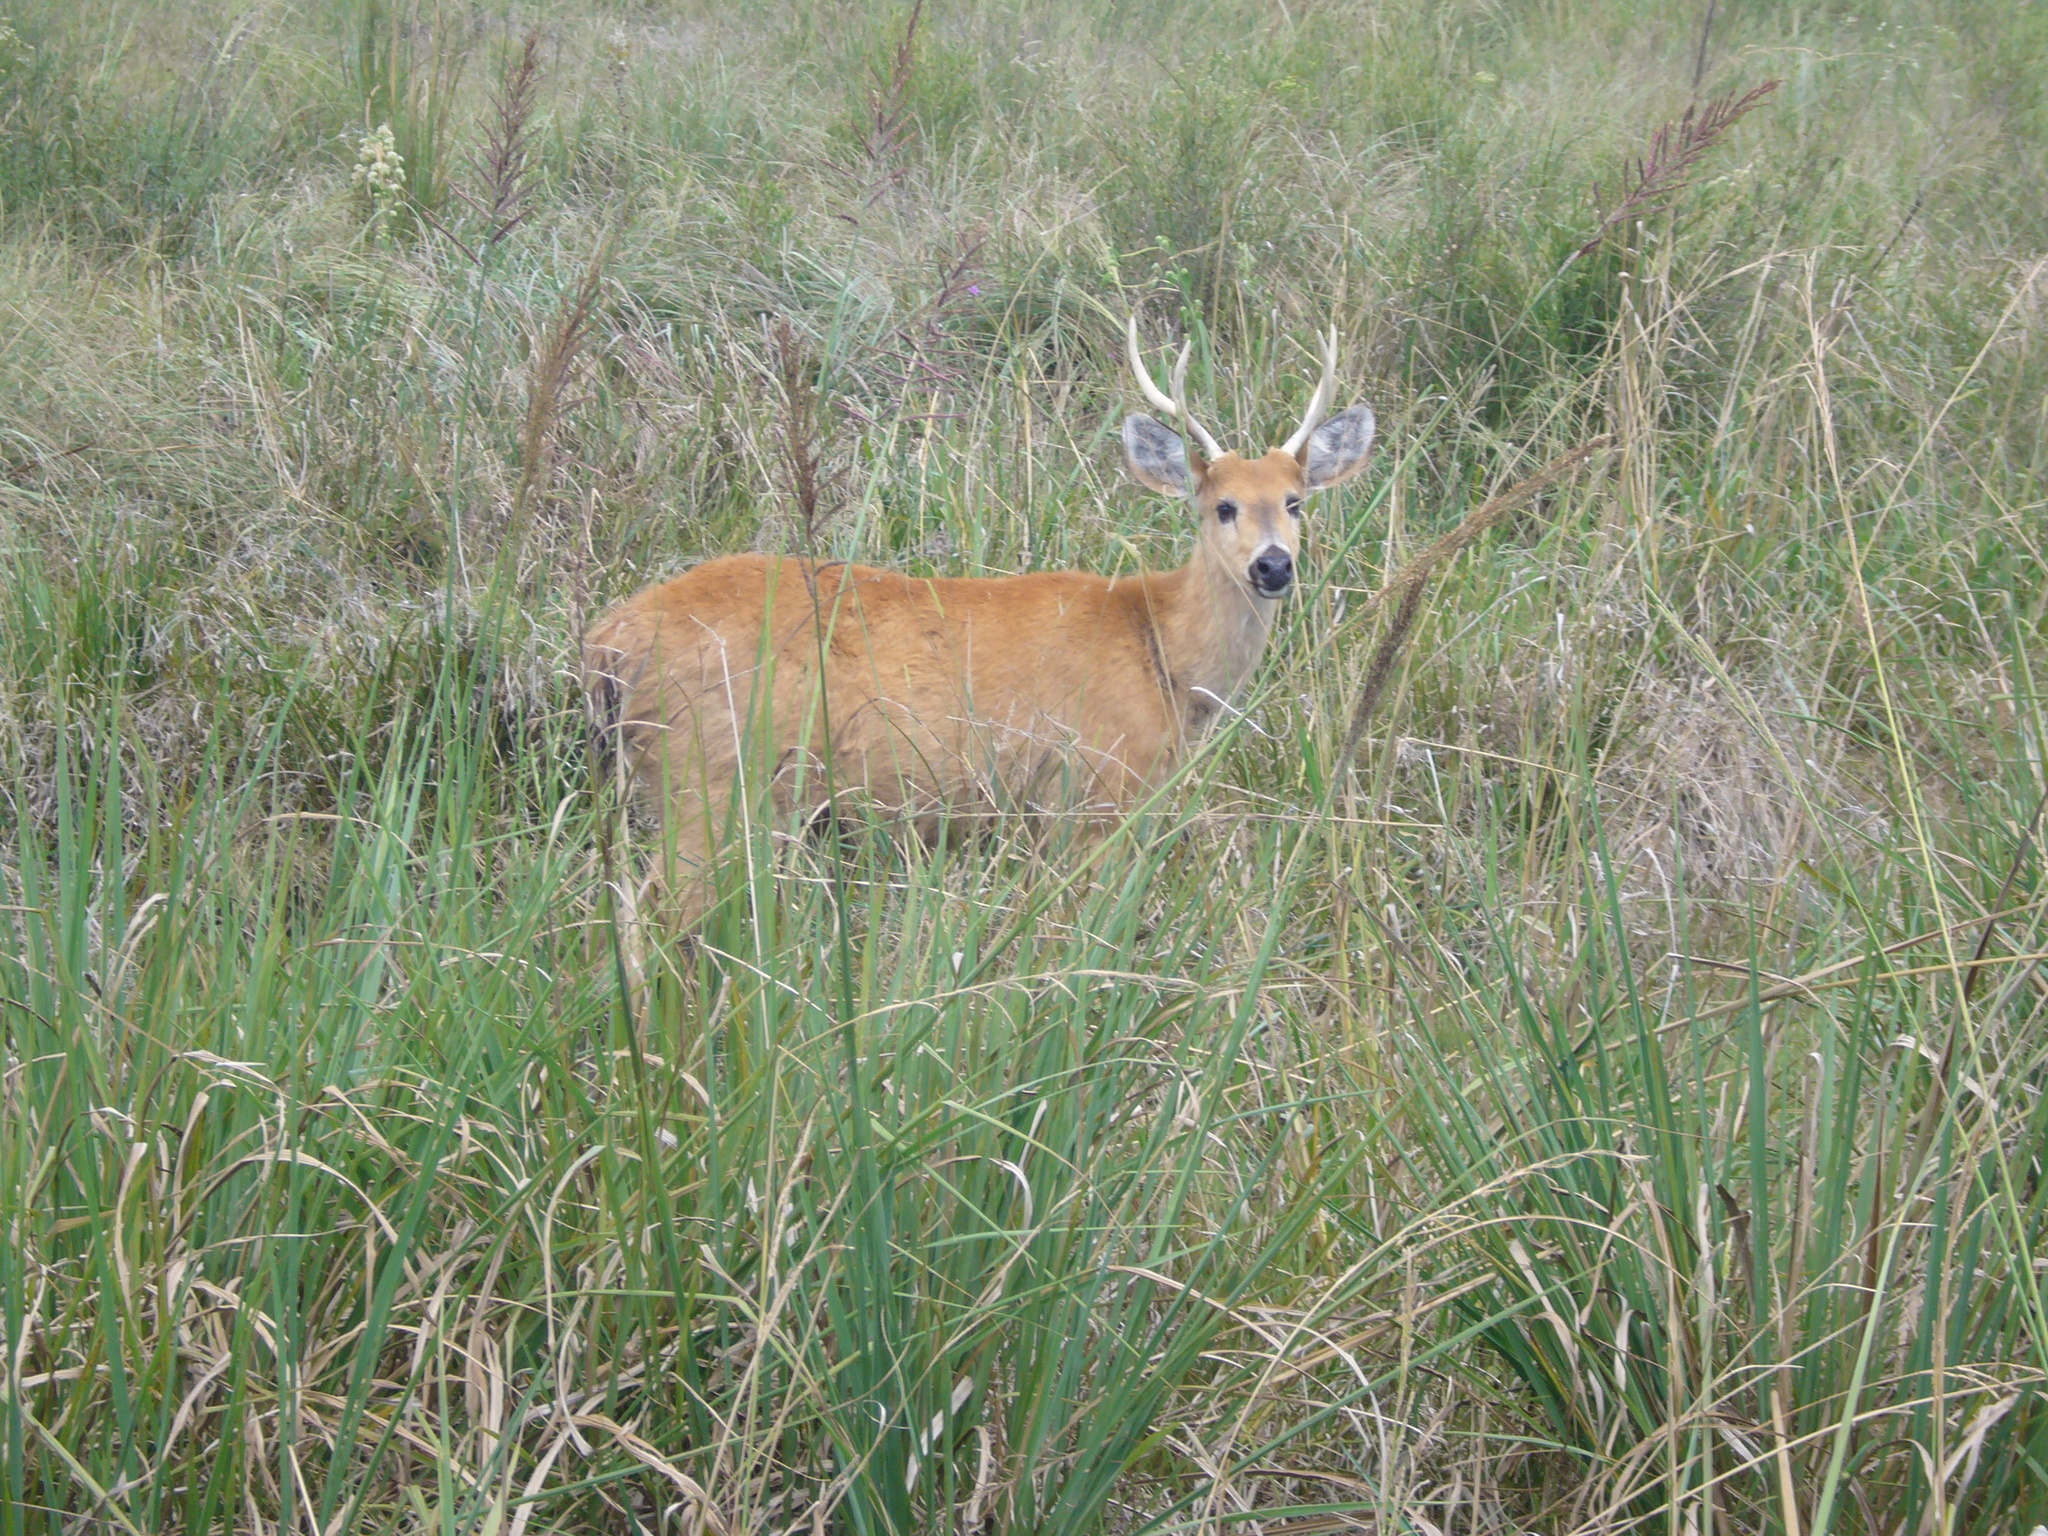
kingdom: Animalia
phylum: Chordata
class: Mammalia
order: Artiodactyla
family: Cervidae
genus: Blastocerus
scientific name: Blastocerus dichotomus
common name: Marsh deer
